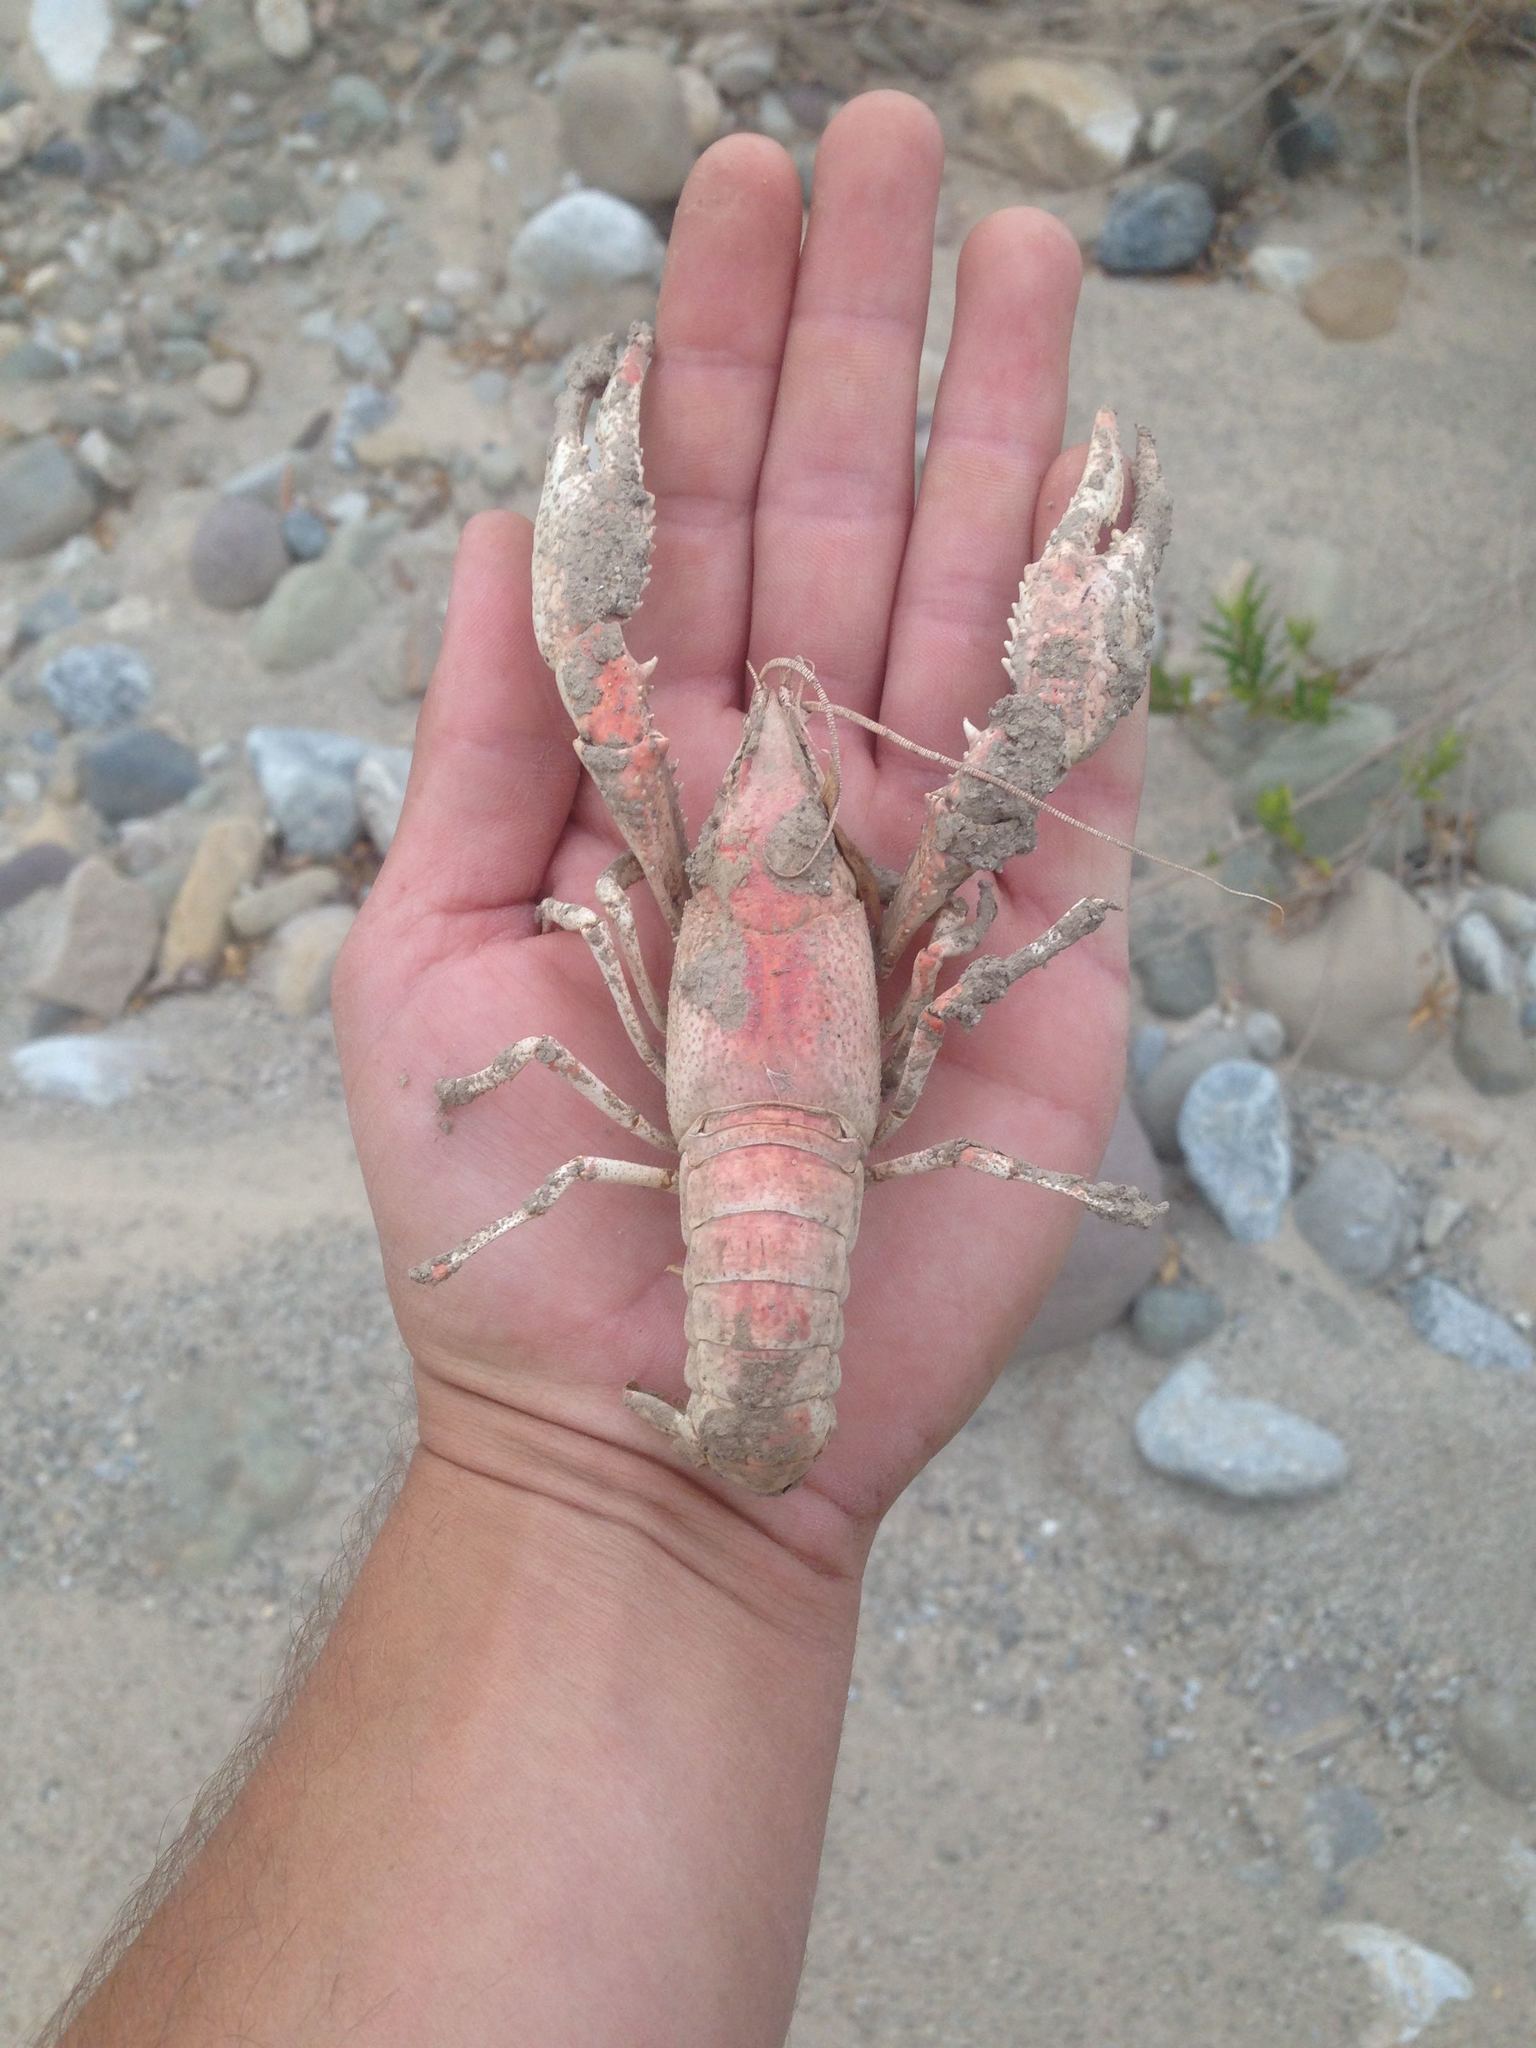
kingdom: Animalia
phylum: Arthropoda
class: Malacostraca
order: Decapoda
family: Cambaridae
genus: Procambarus
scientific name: Procambarus clarkii
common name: Red swamp crayfish
